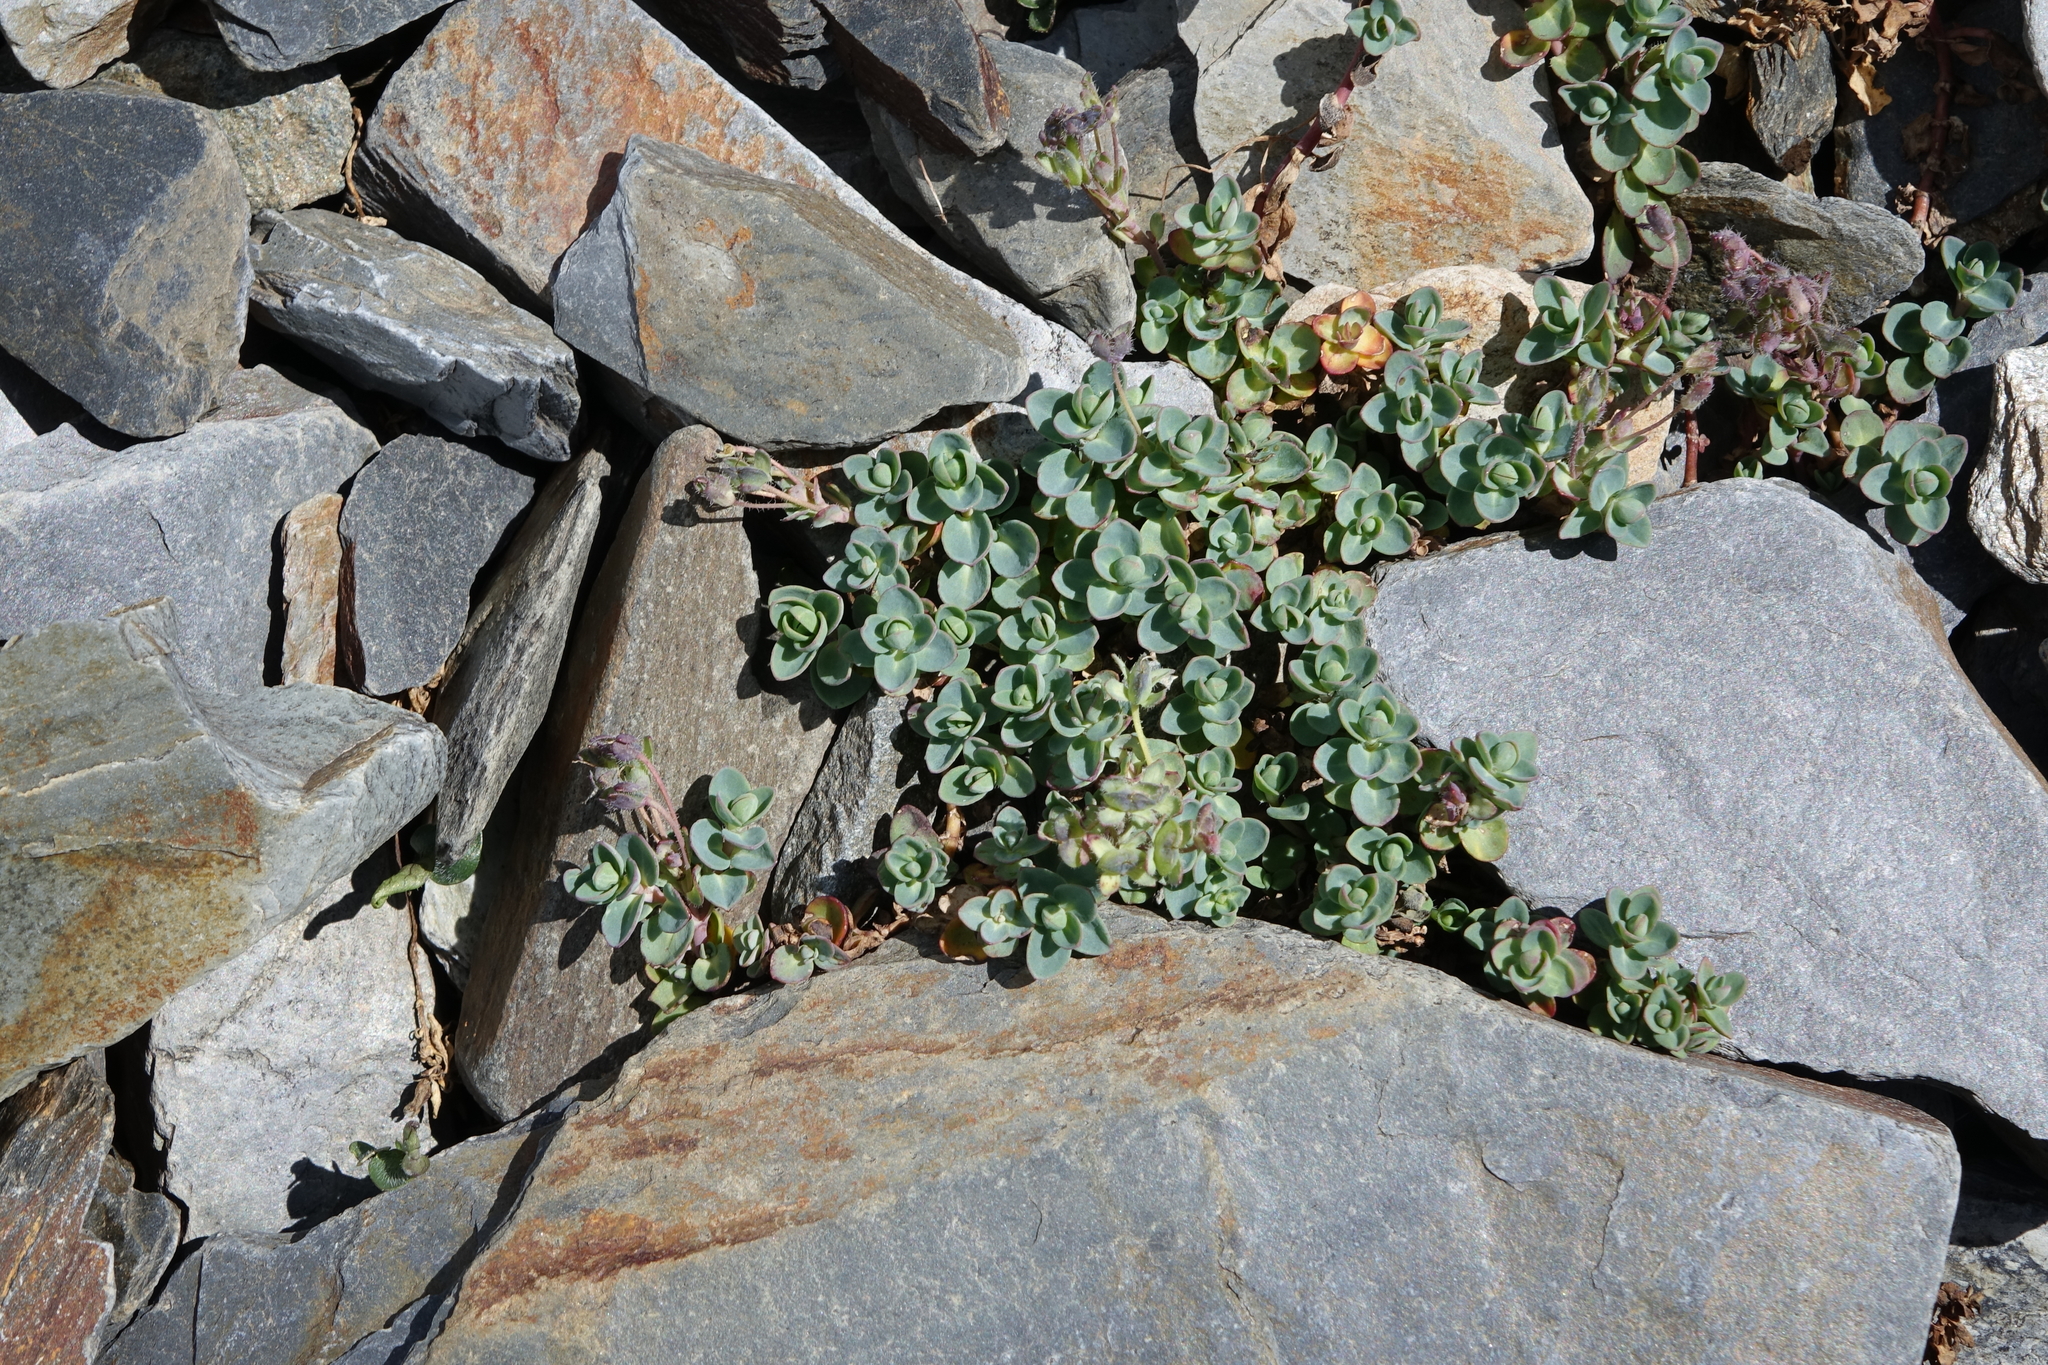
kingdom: Plantae
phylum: Tracheophyta
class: Magnoliopsida
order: Lamiales
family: Plantaginaceae
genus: Veronica
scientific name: Veronica telephiifolia
